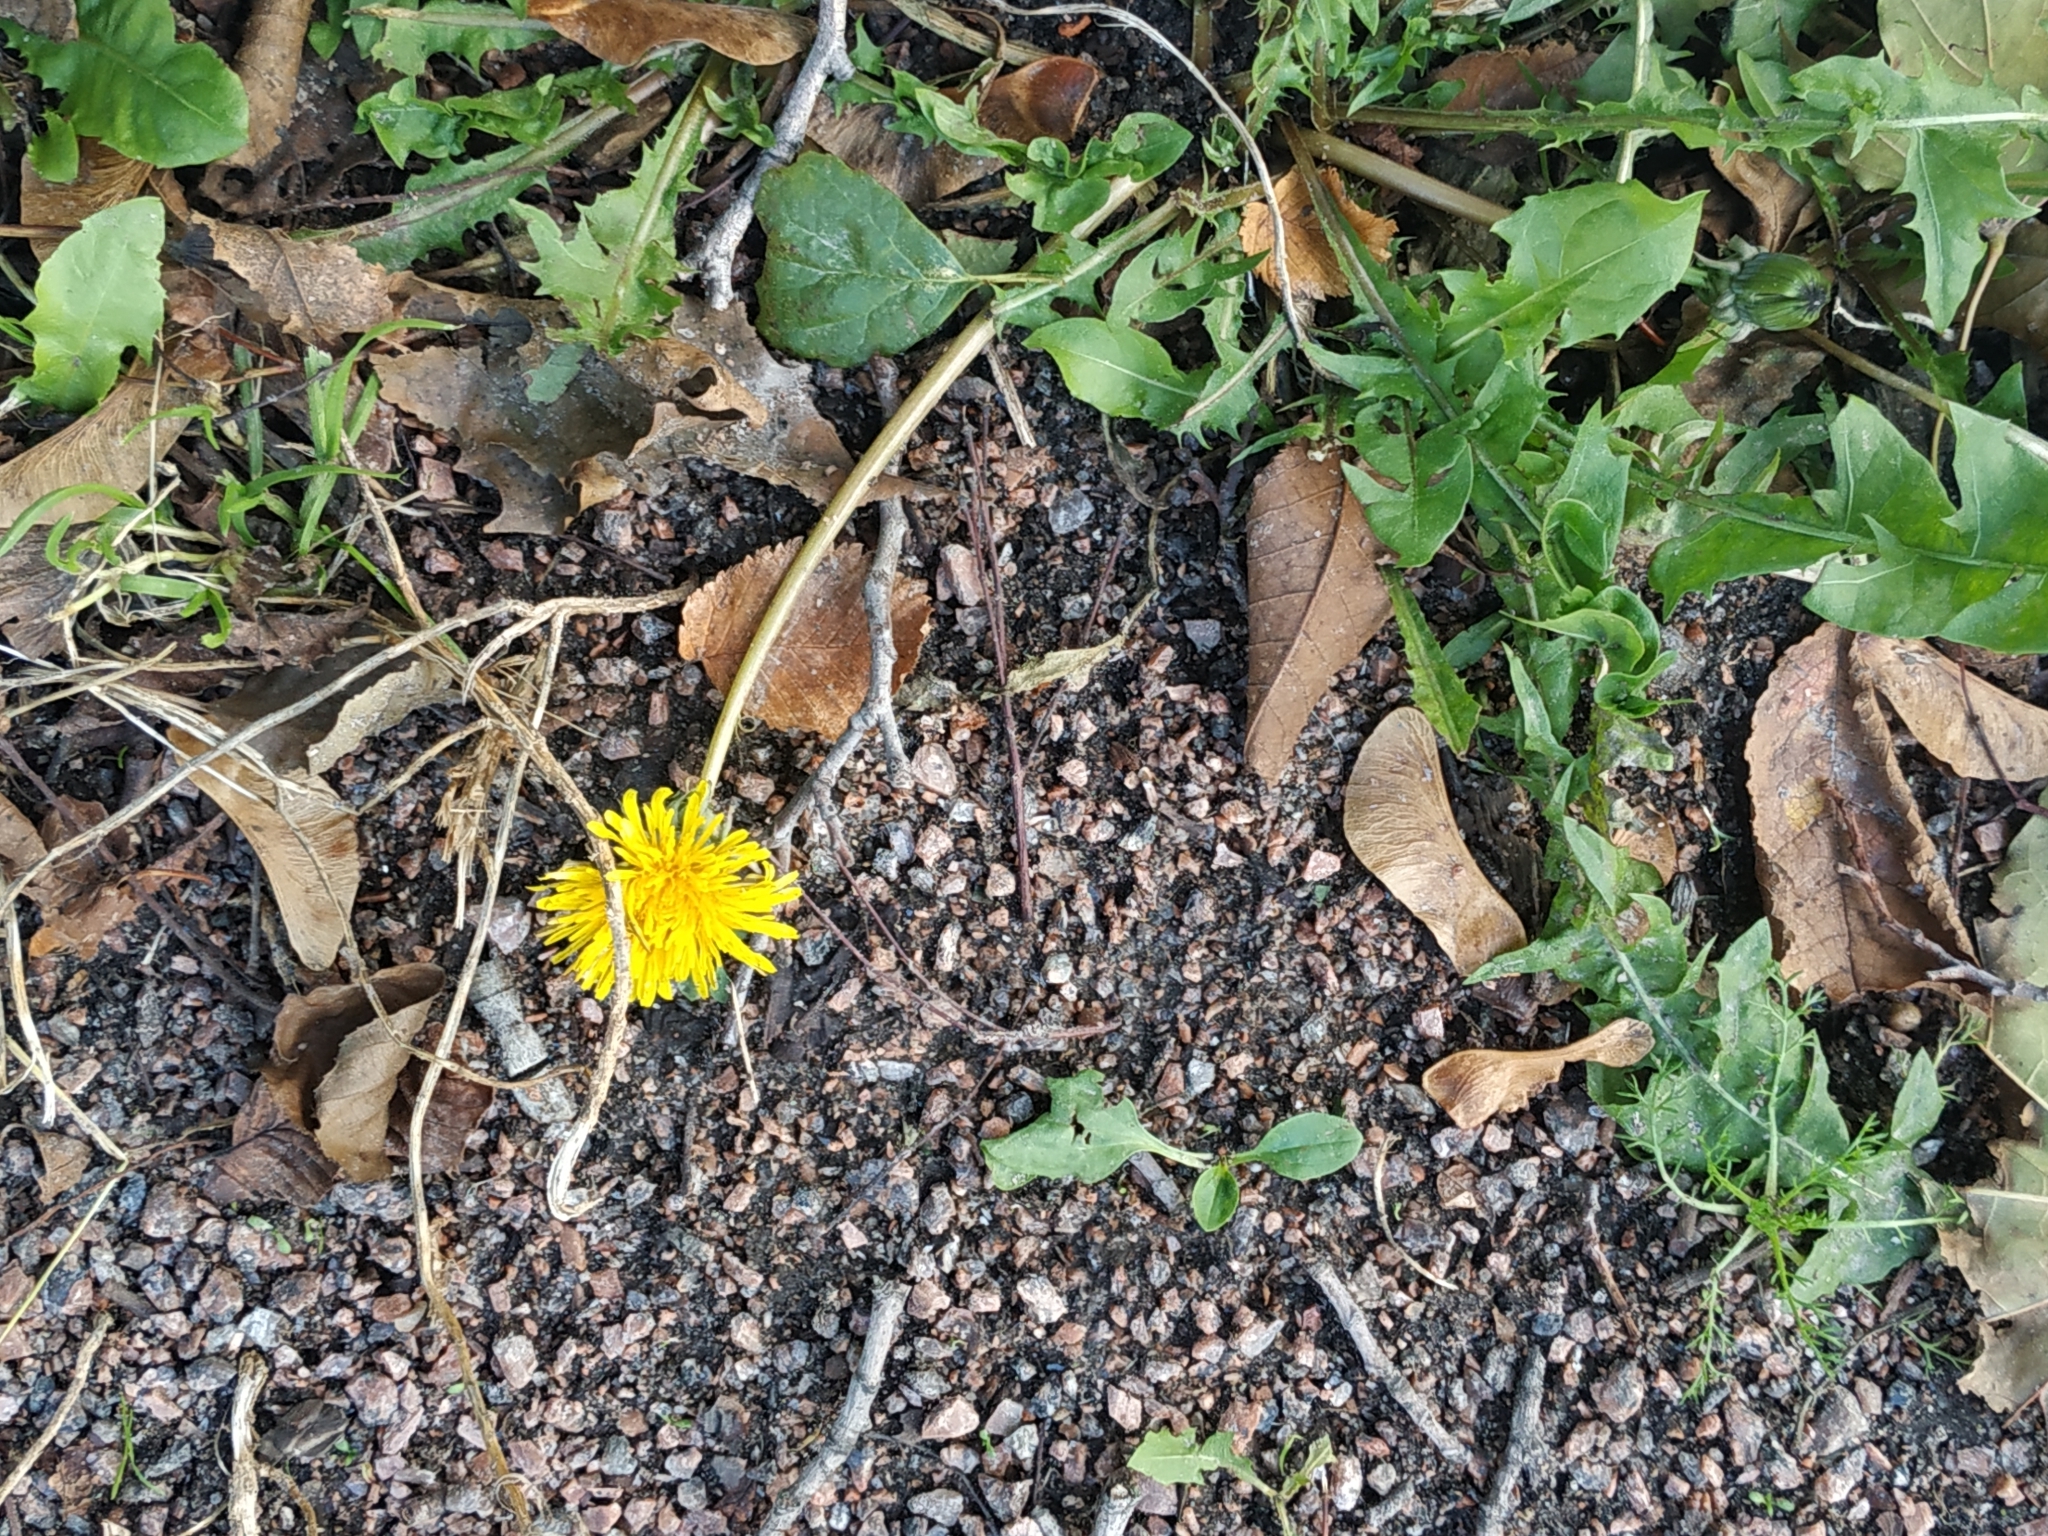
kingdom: Plantae
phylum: Tracheophyta
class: Magnoliopsida
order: Asterales
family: Asteraceae
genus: Taraxacum
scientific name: Taraxacum officinale
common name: Common dandelion
